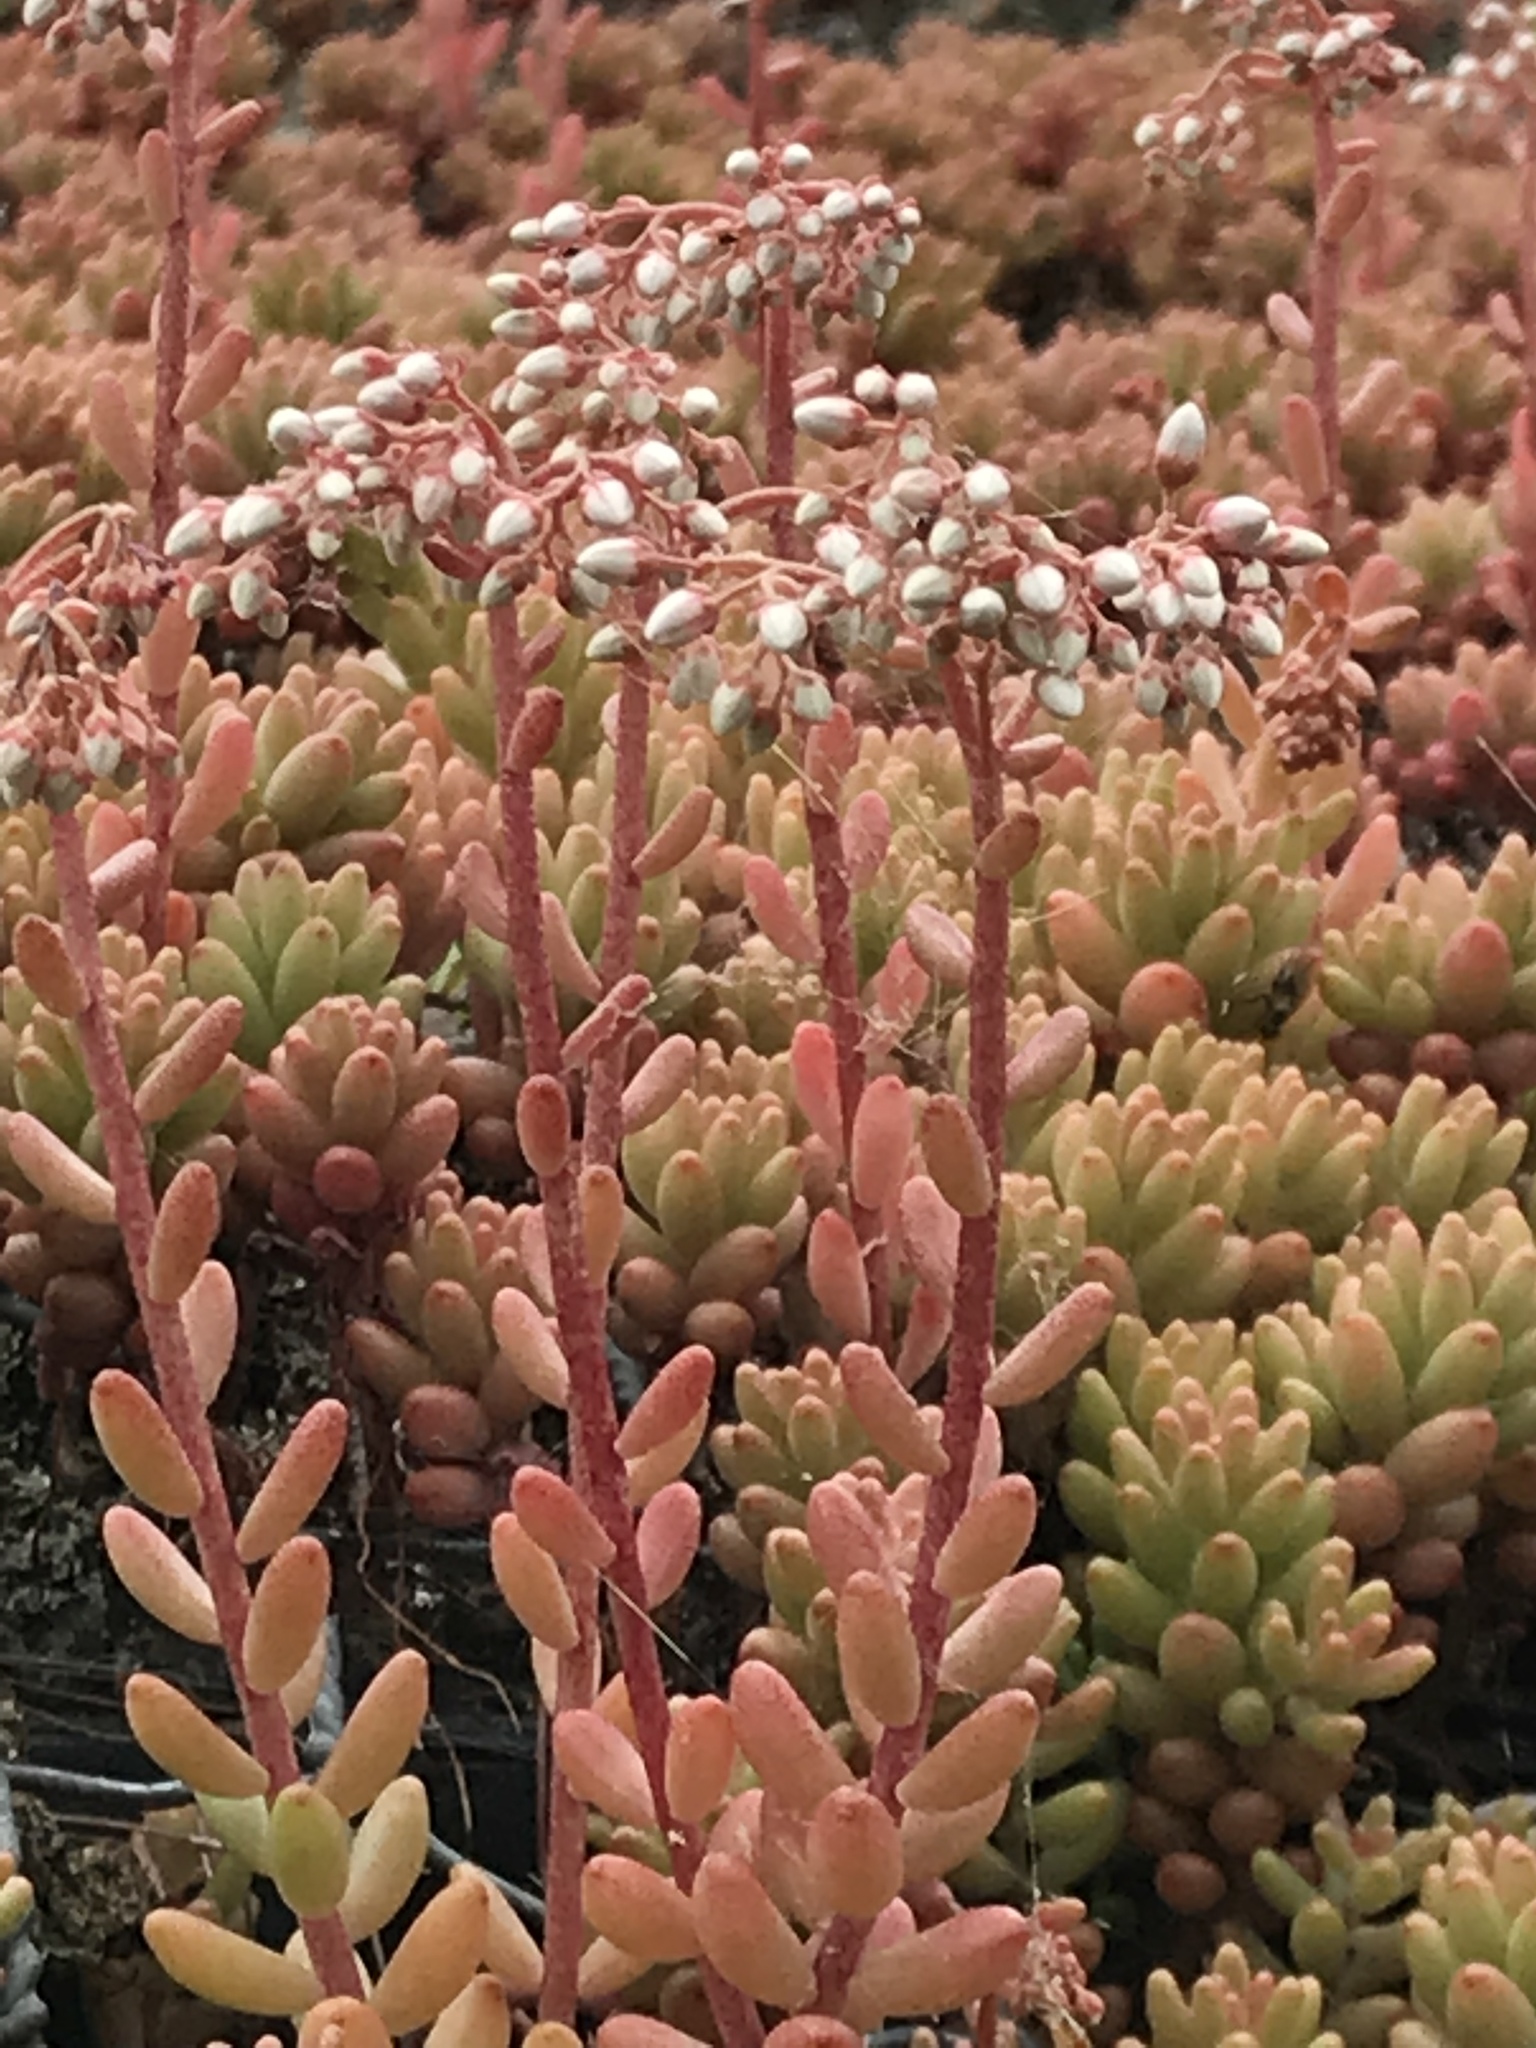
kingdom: Plantae
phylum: Tracheophyta
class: Magnoliopsida
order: Saxifragales
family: Crassulaceae
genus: Sedum
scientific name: Sedum album
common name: White stonecrop
